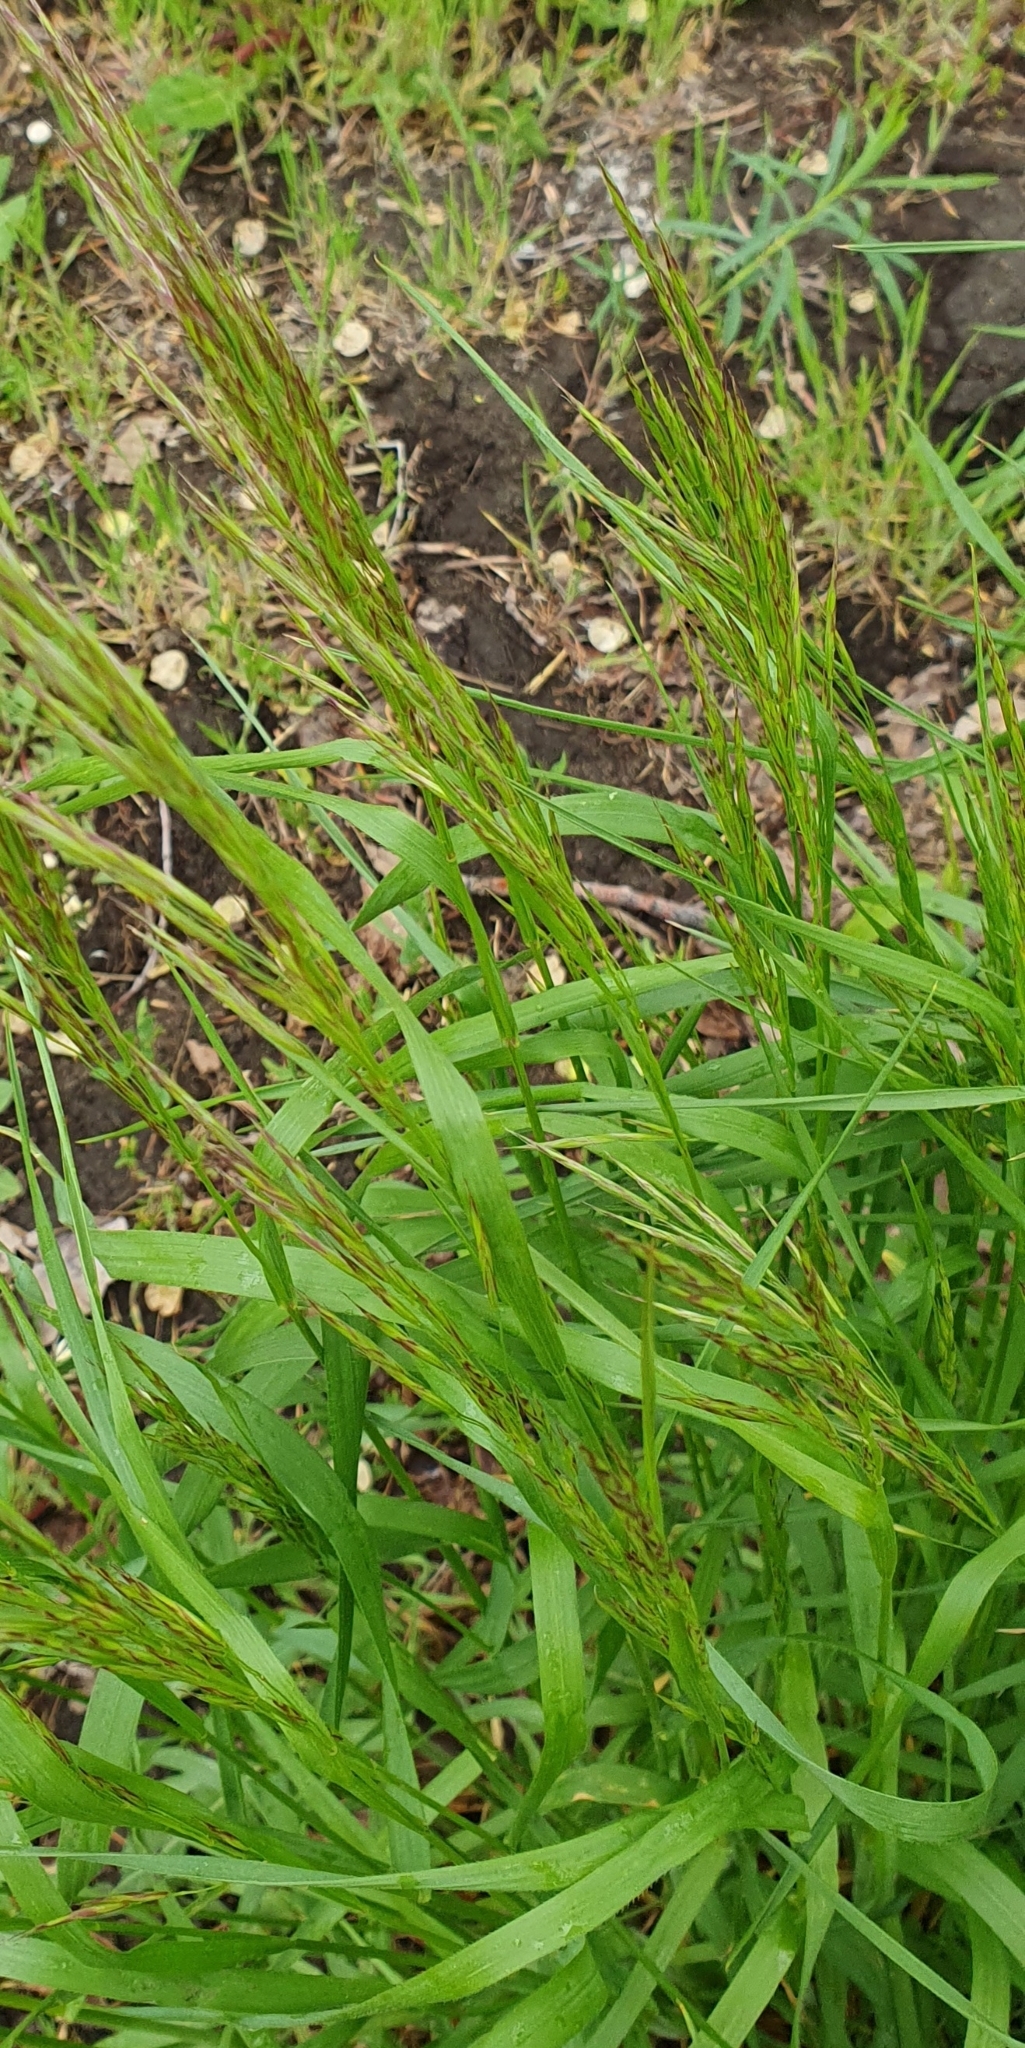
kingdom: Plantae
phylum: Tracheophyta
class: Liliopsida
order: Poales
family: Poaceae
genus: Bromus
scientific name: Bromus inermis
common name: Smooth brome
